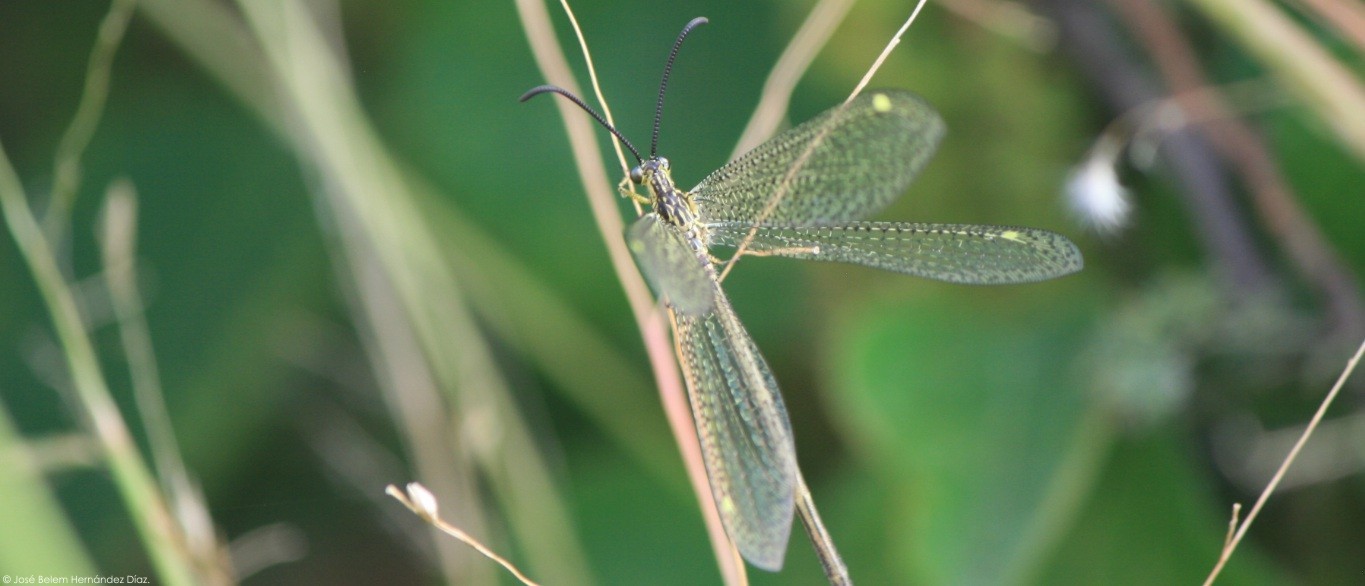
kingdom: Animalia
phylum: Arthropoda
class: Insecta
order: Neuroptera
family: Myrmeleontidae
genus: Brachynemurus
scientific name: Brachynemurus versutus
